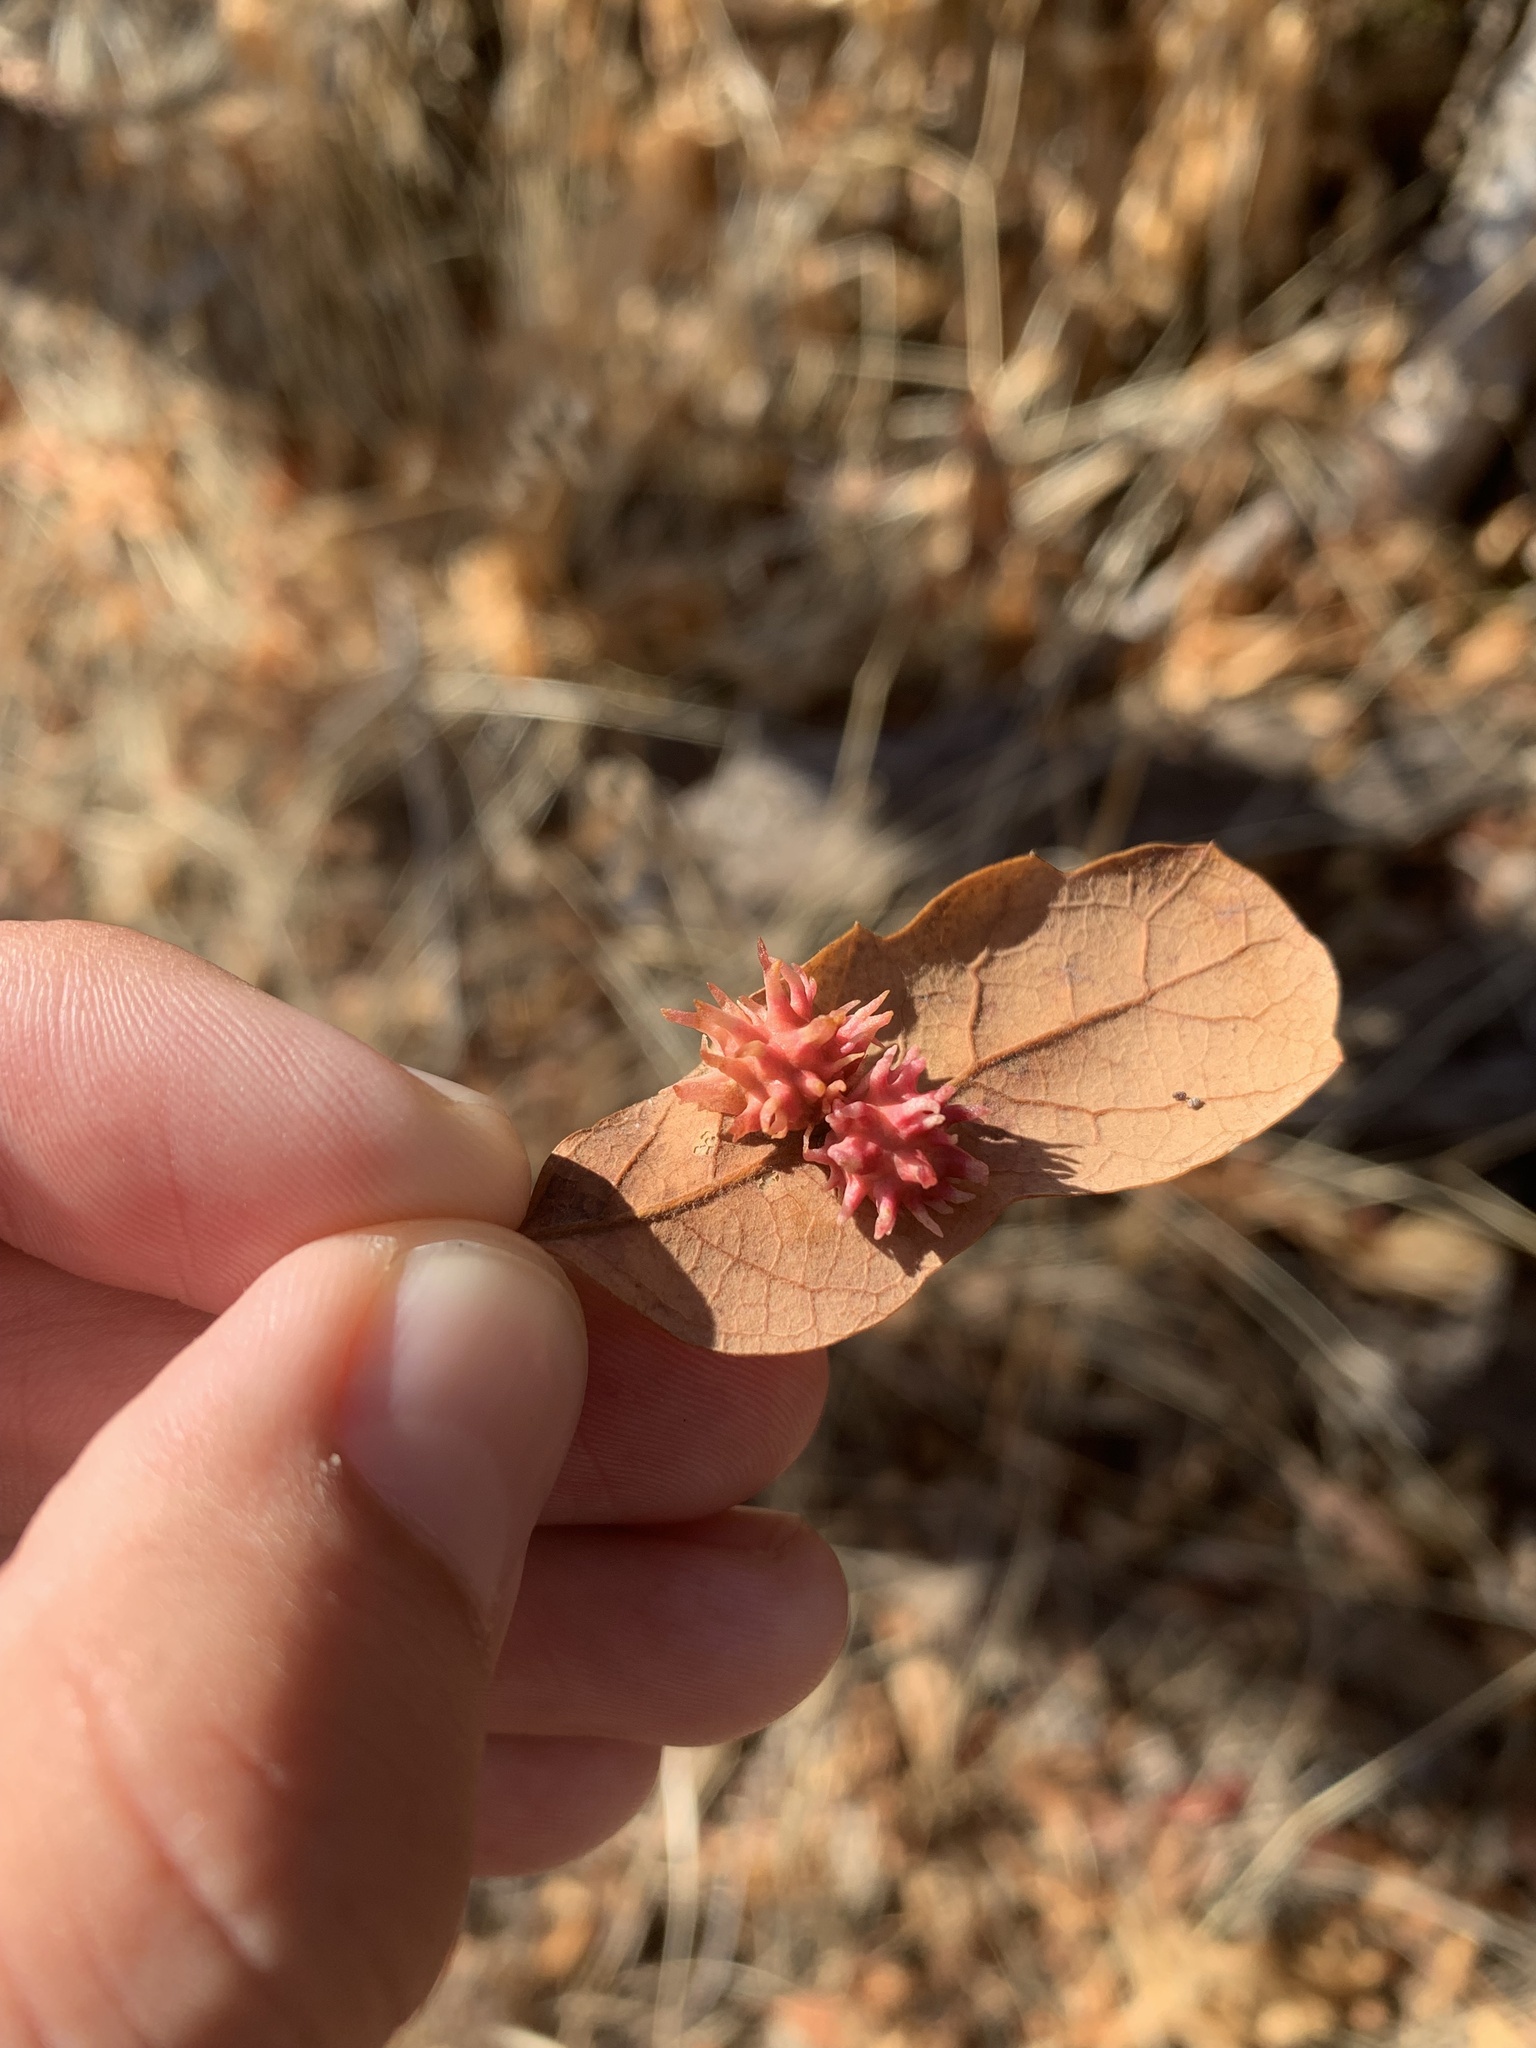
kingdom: Animalia
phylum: Arthropoda
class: Insecta
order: Hymenoptera
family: Cynipidae
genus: Cynips
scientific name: Cynips
